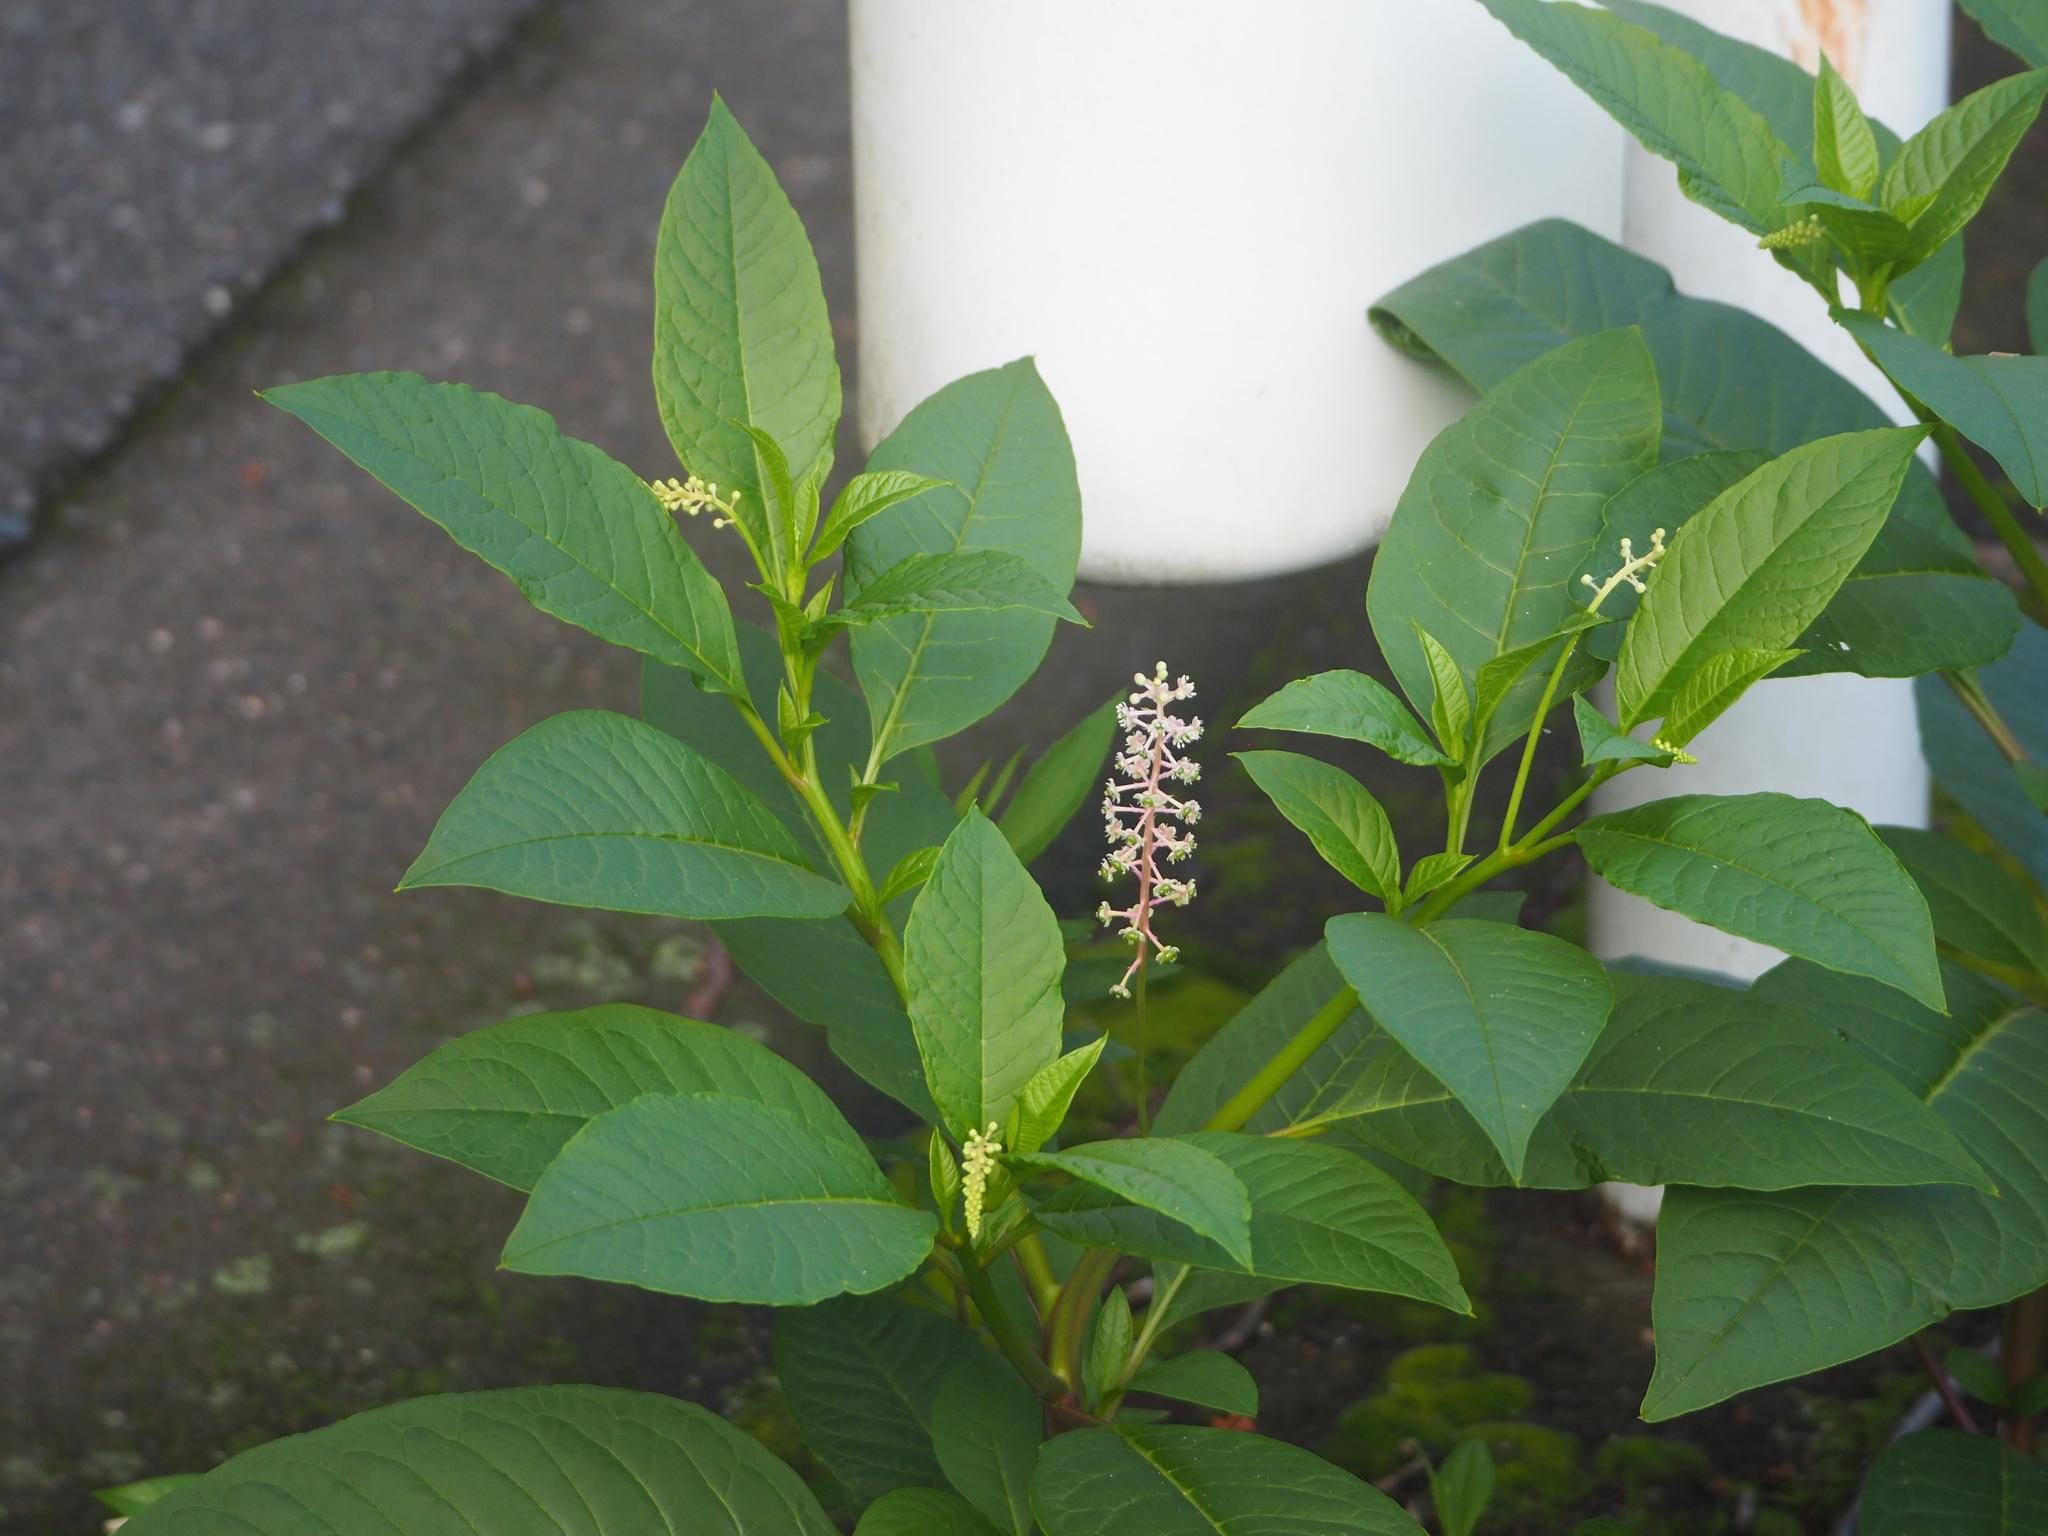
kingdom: Plantae
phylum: Tracheophyta
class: Magnoliopsida
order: Caryophyllales
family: Phytolaccaceae
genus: Phytolacca
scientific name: Phytolacca americana
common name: American pokeweed
